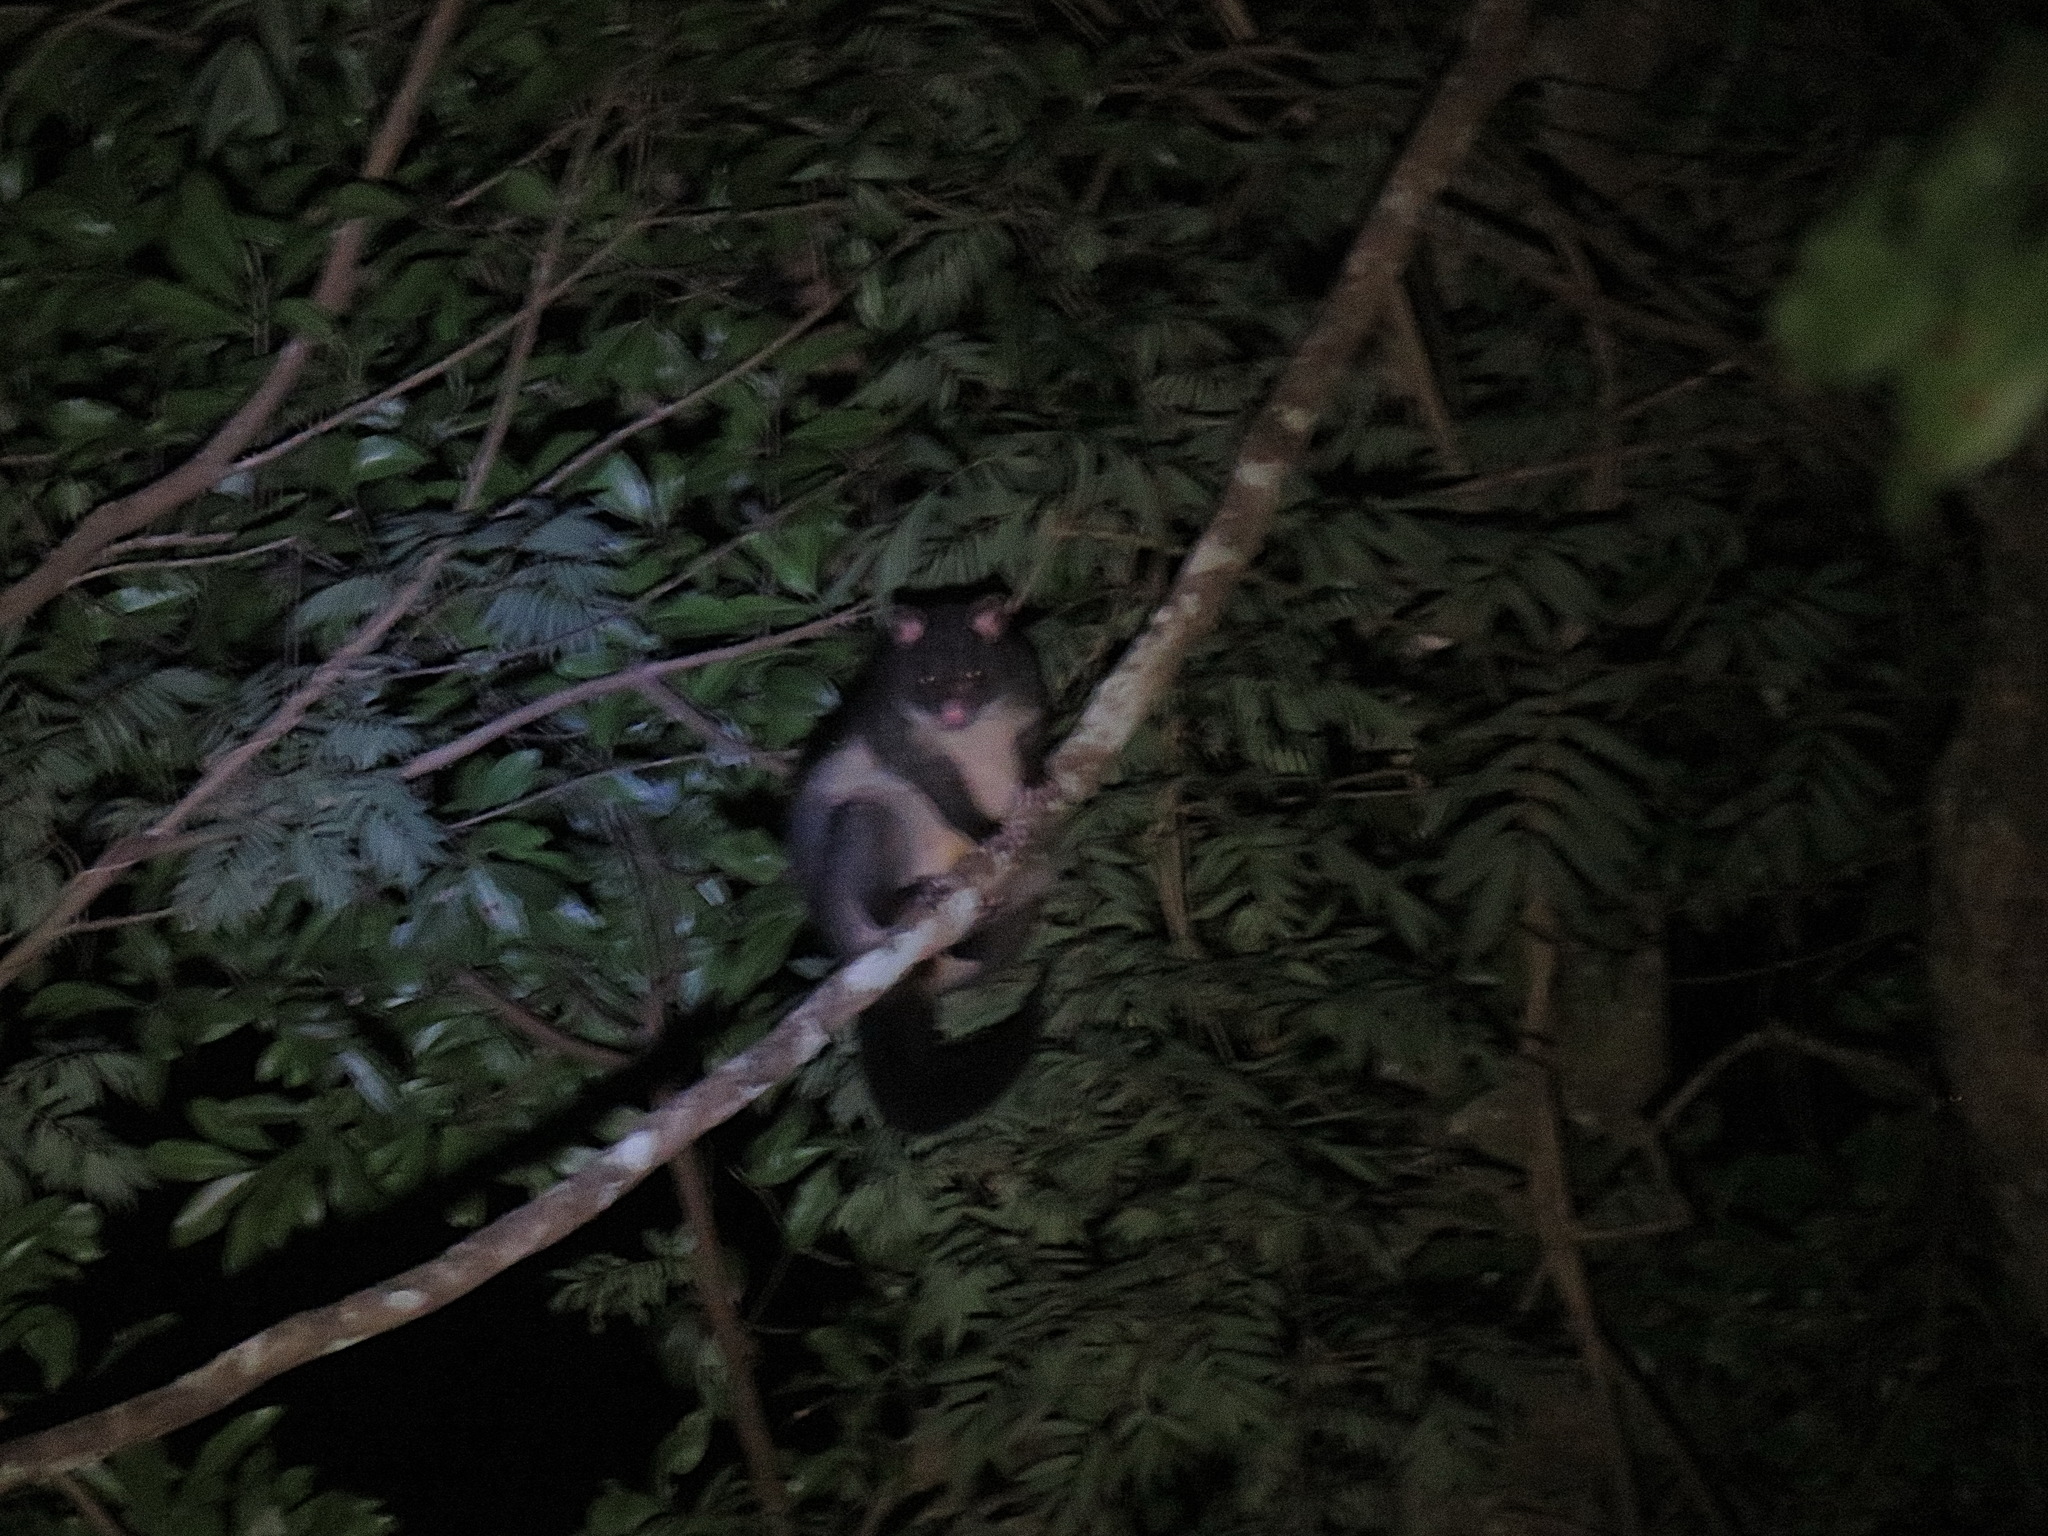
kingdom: Animalia
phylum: Chordata
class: Mammalia
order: Diprotodontia
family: Phalangeridae
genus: Trichosurus
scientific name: Trichosurus caninus
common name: Short-eared possum
